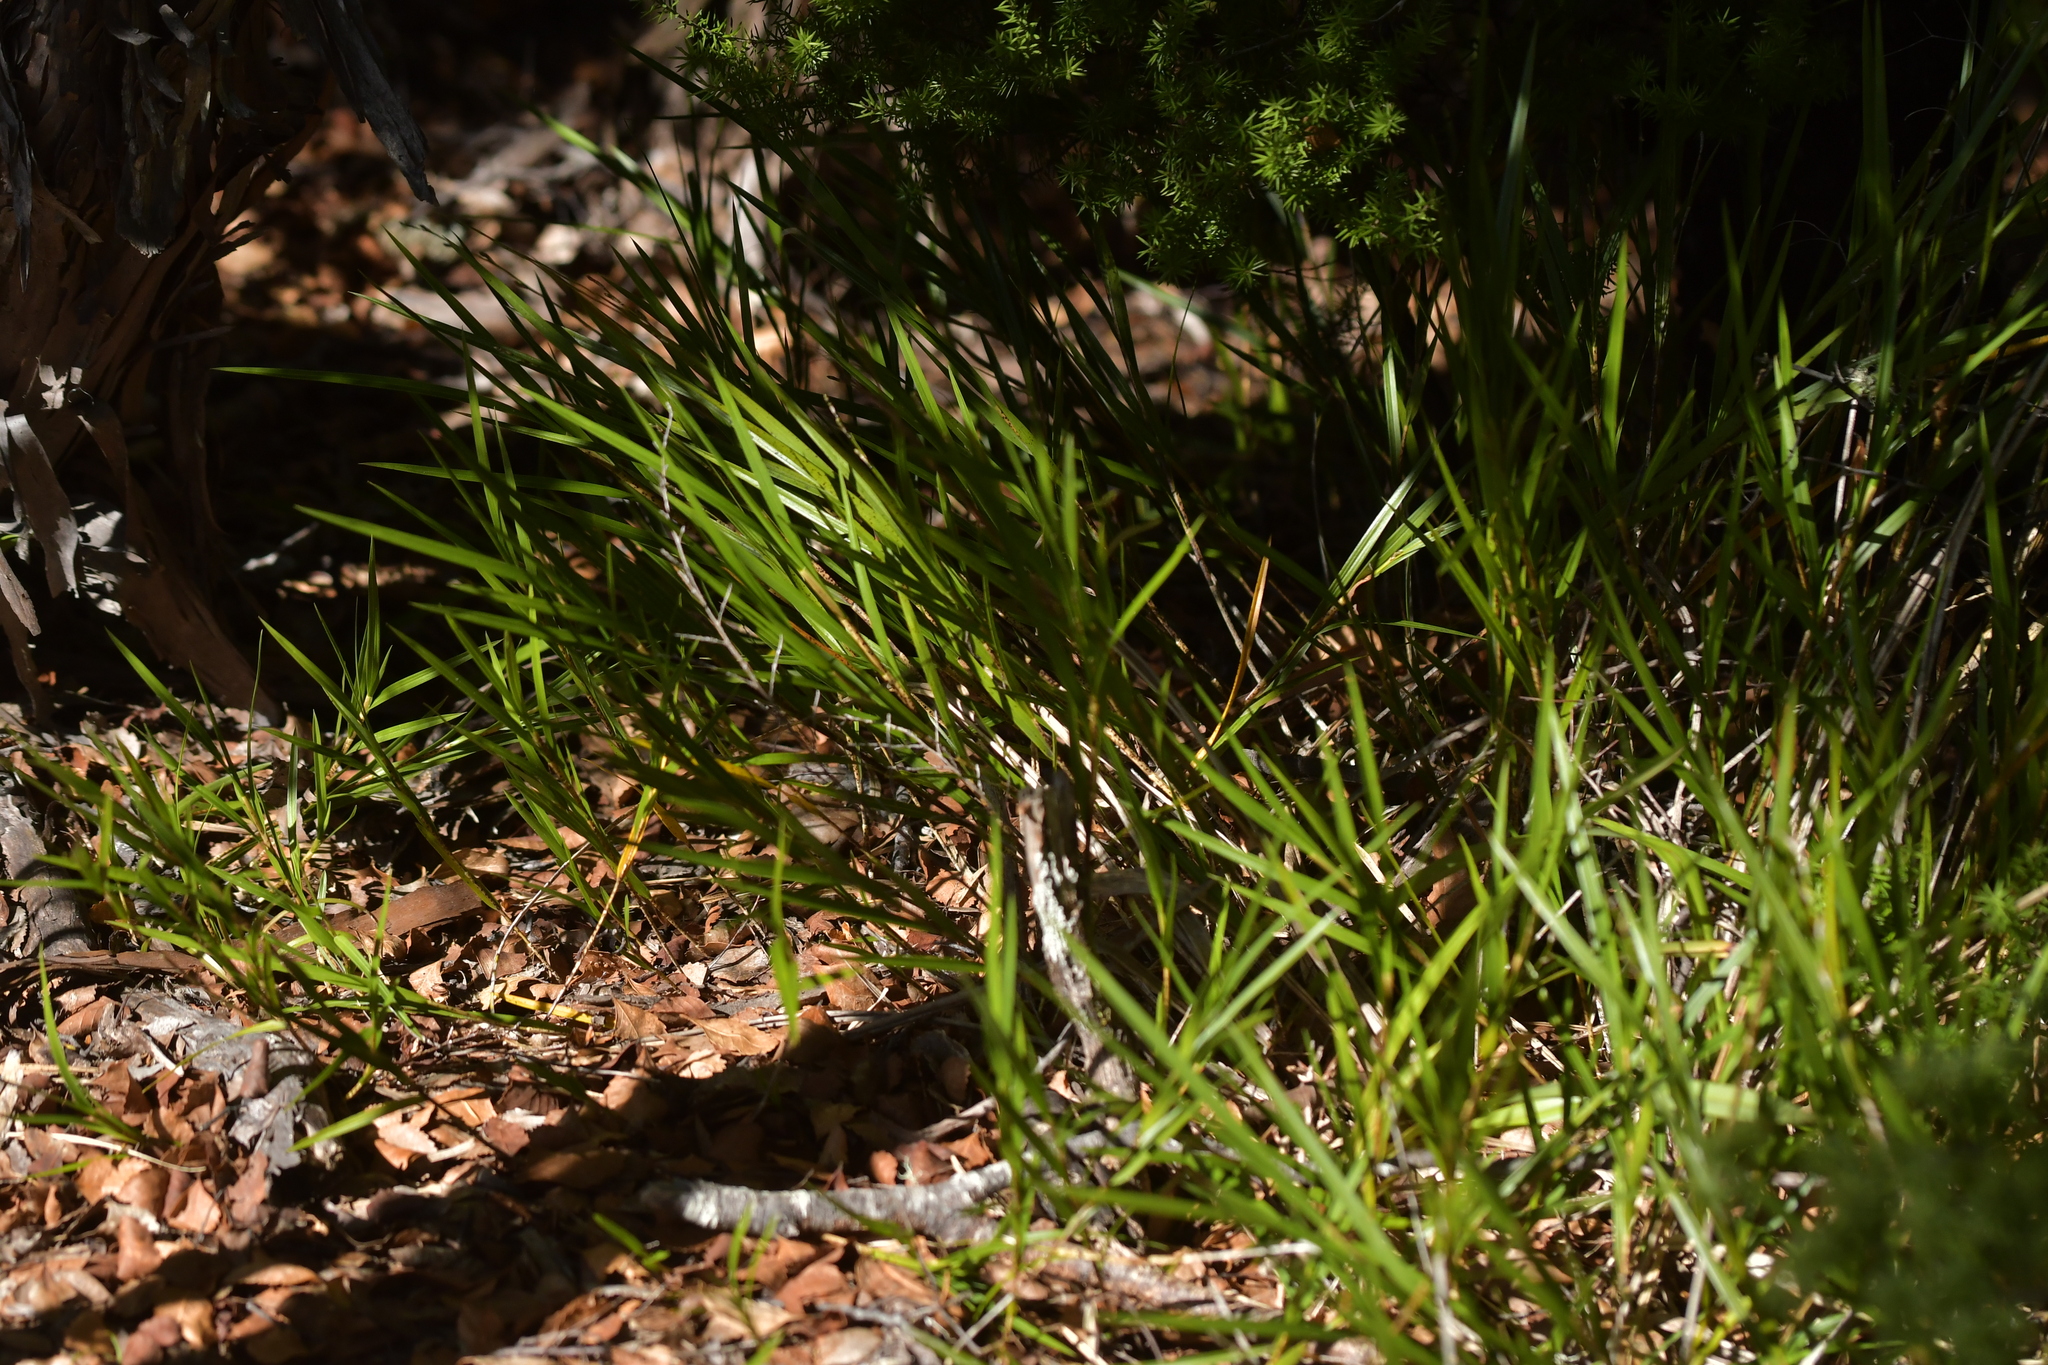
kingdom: Plantae
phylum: Tracheophyta
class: Liliopsida
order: Asparagales
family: Orchidaceae
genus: Earina
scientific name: Earina mucronata
